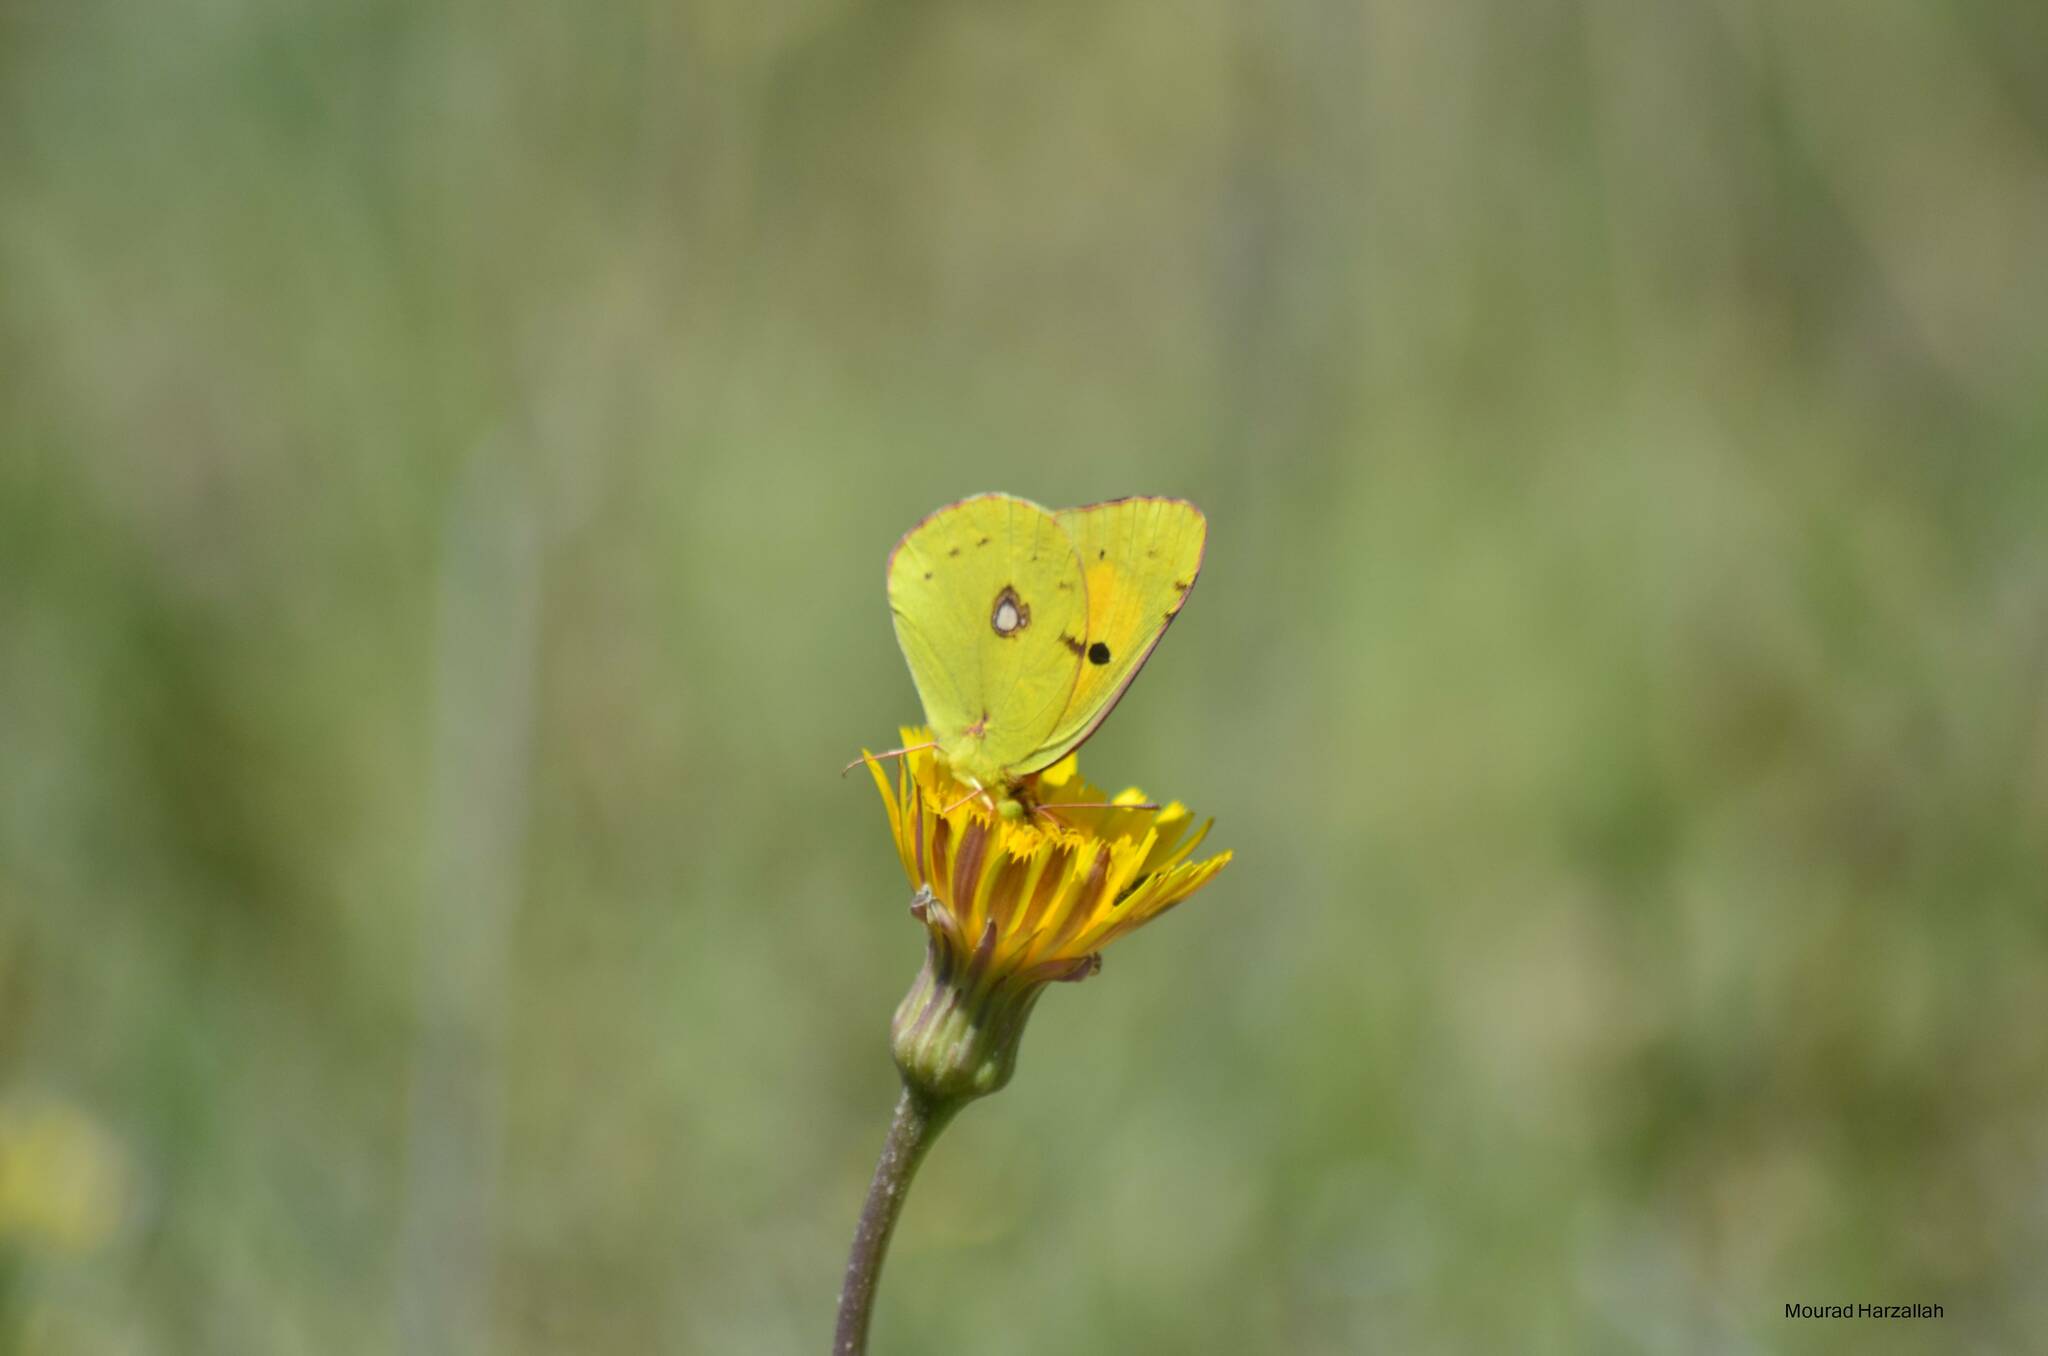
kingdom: Animalia
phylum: Arthropoda
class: Insecta
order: Lepidoptera
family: Pieridae
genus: Colias
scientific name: Colias croceus
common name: Clouded yellow
